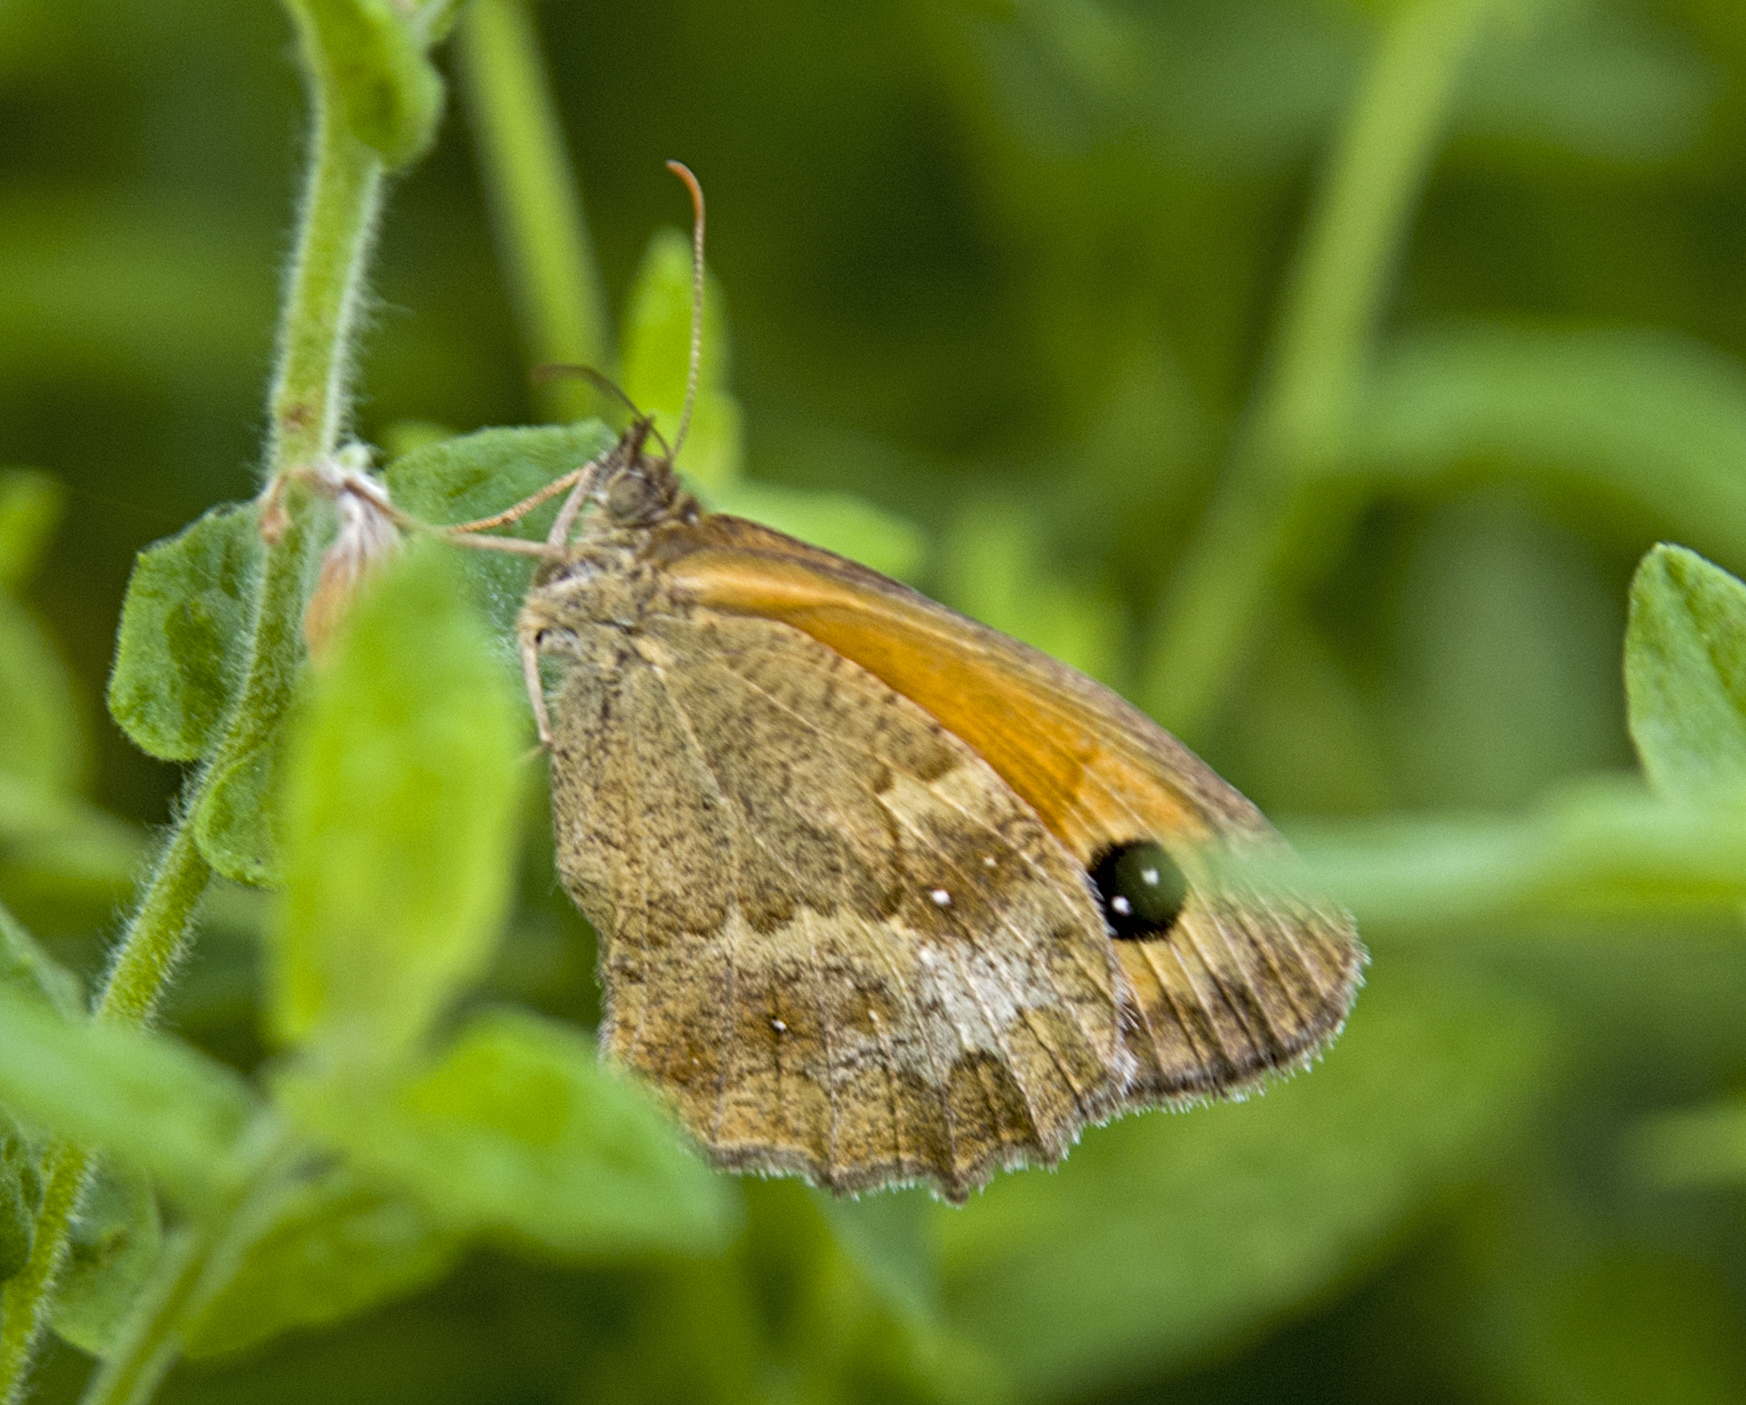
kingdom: Animalia
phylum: Arthropoda
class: Insecta
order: Lepidoptera
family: Nymphalidae
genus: Pyronia
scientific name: Pyronia tithonus
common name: Gatekeeper
